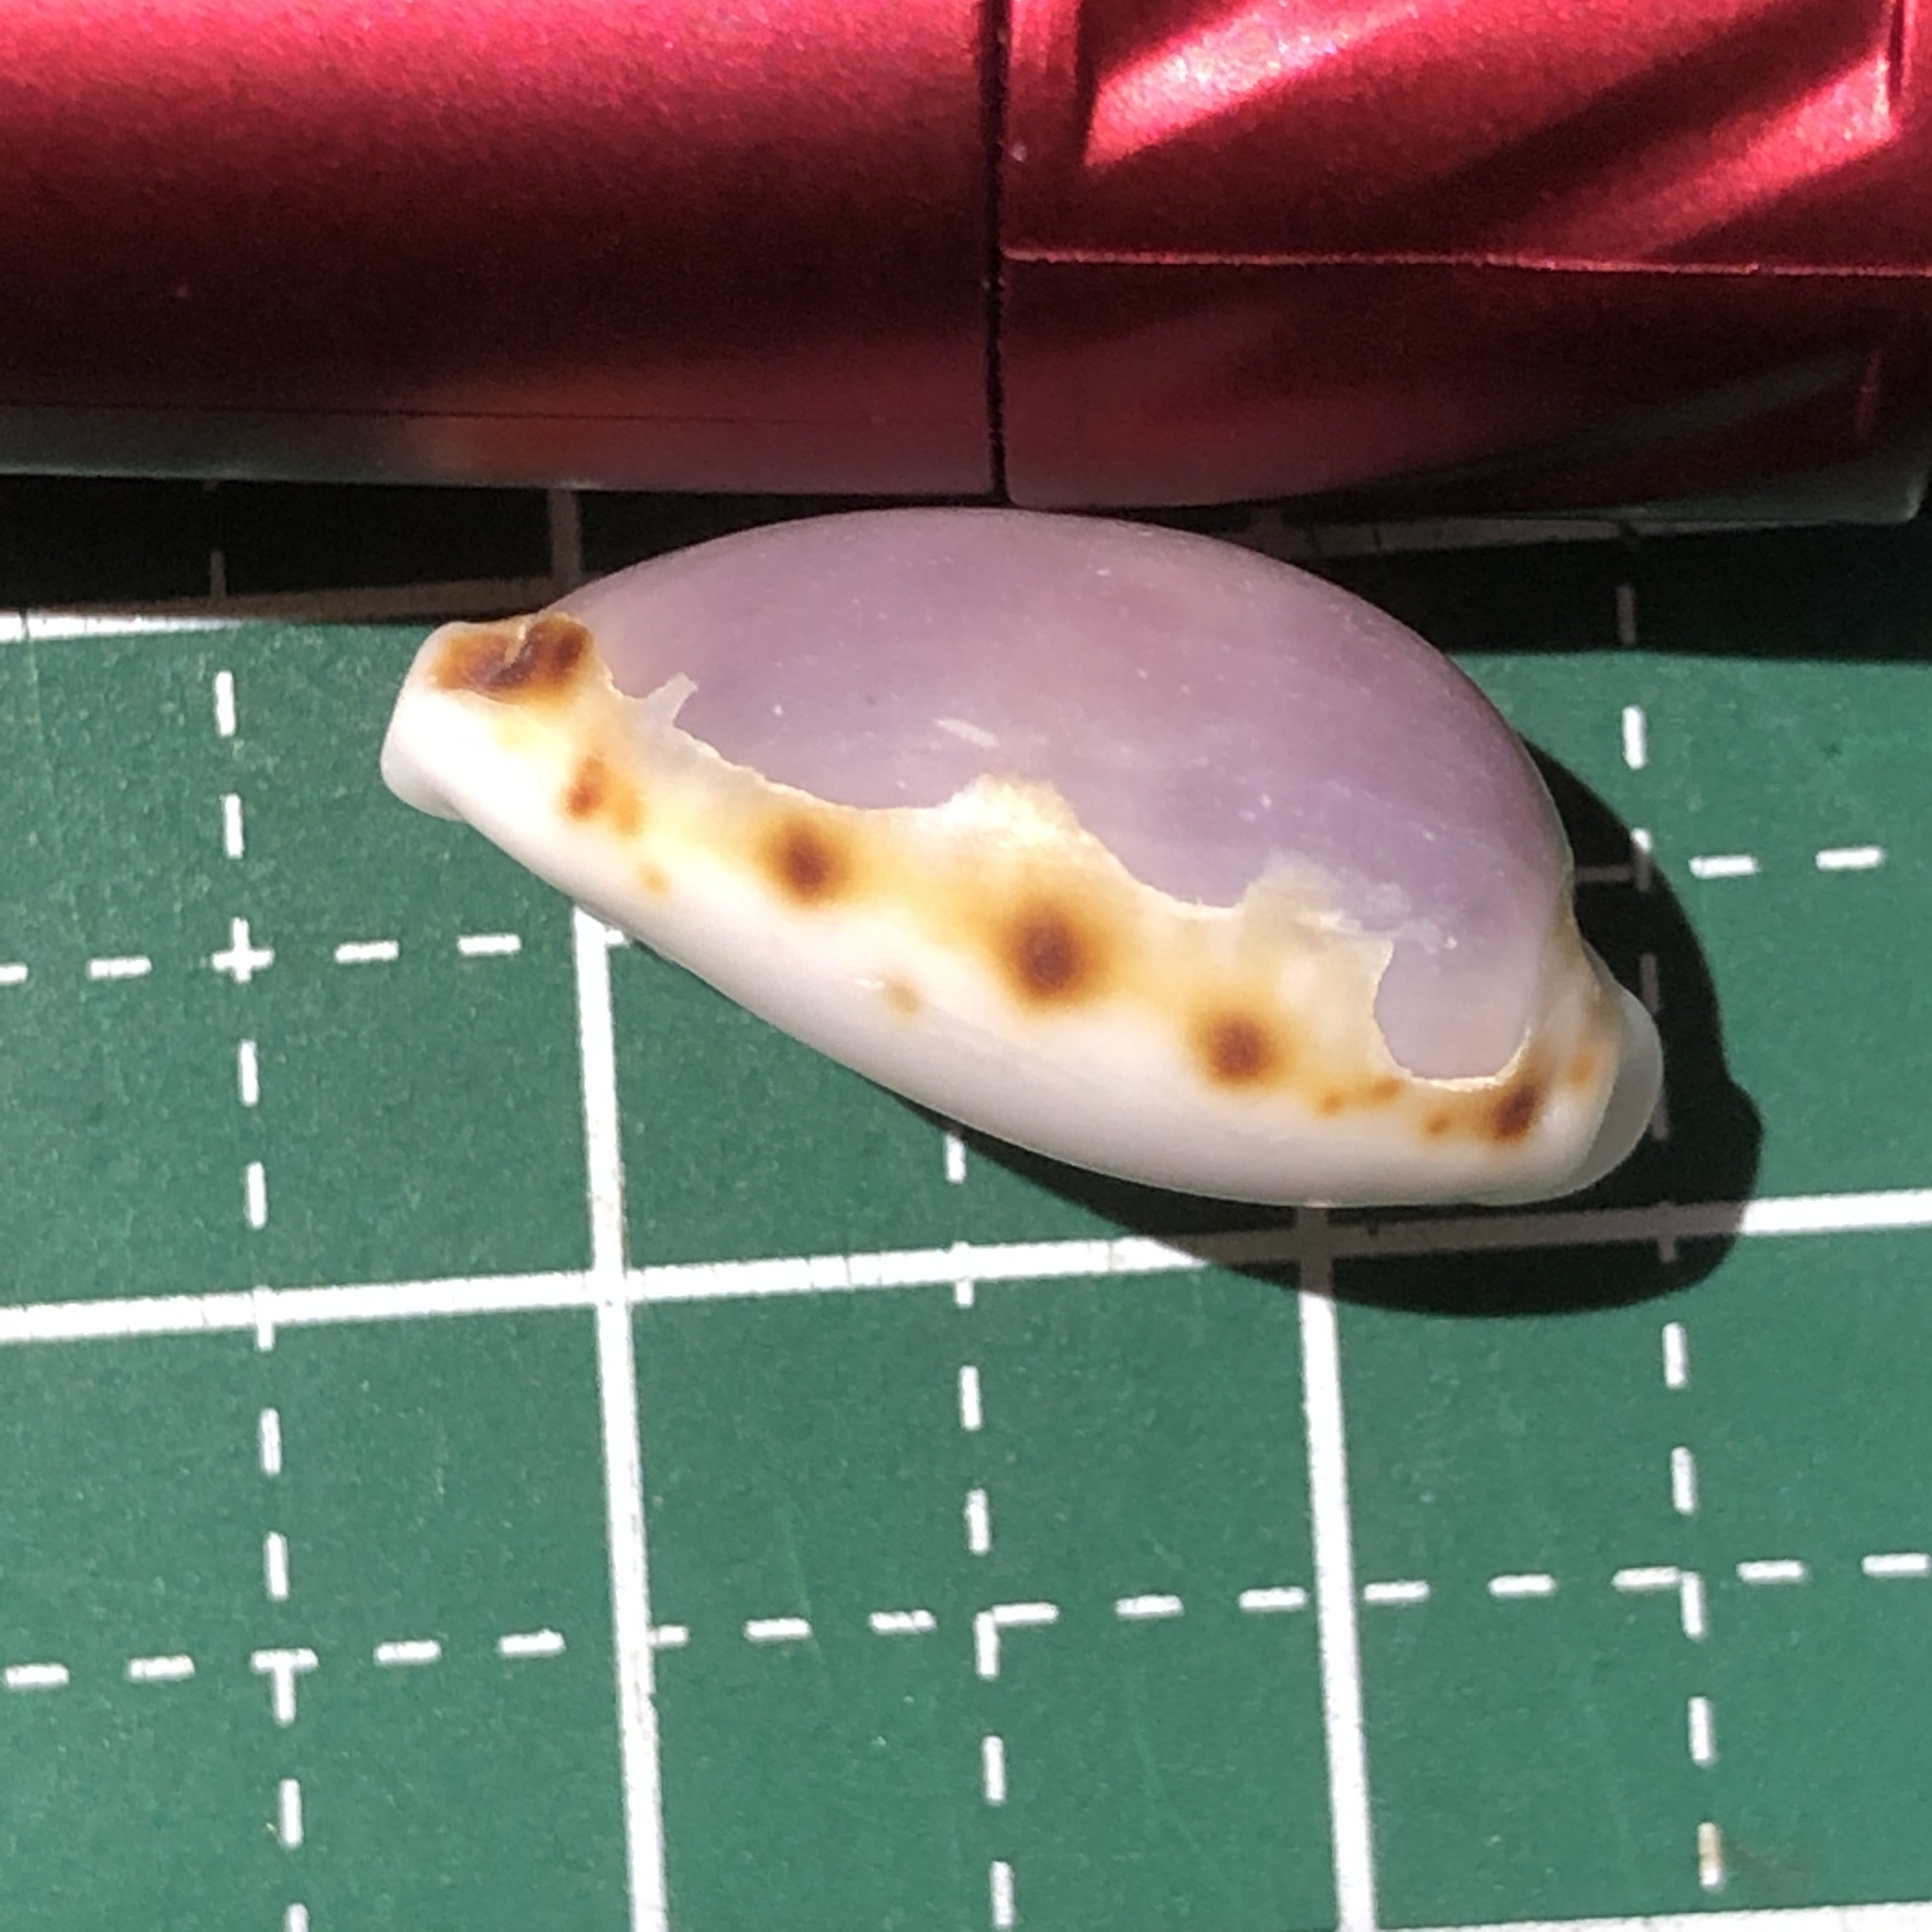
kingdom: Animalia
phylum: Mollusca
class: Gastropoda
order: Littorinimorpha
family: Cypraeidae
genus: Naria
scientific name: Naria labrolineata
